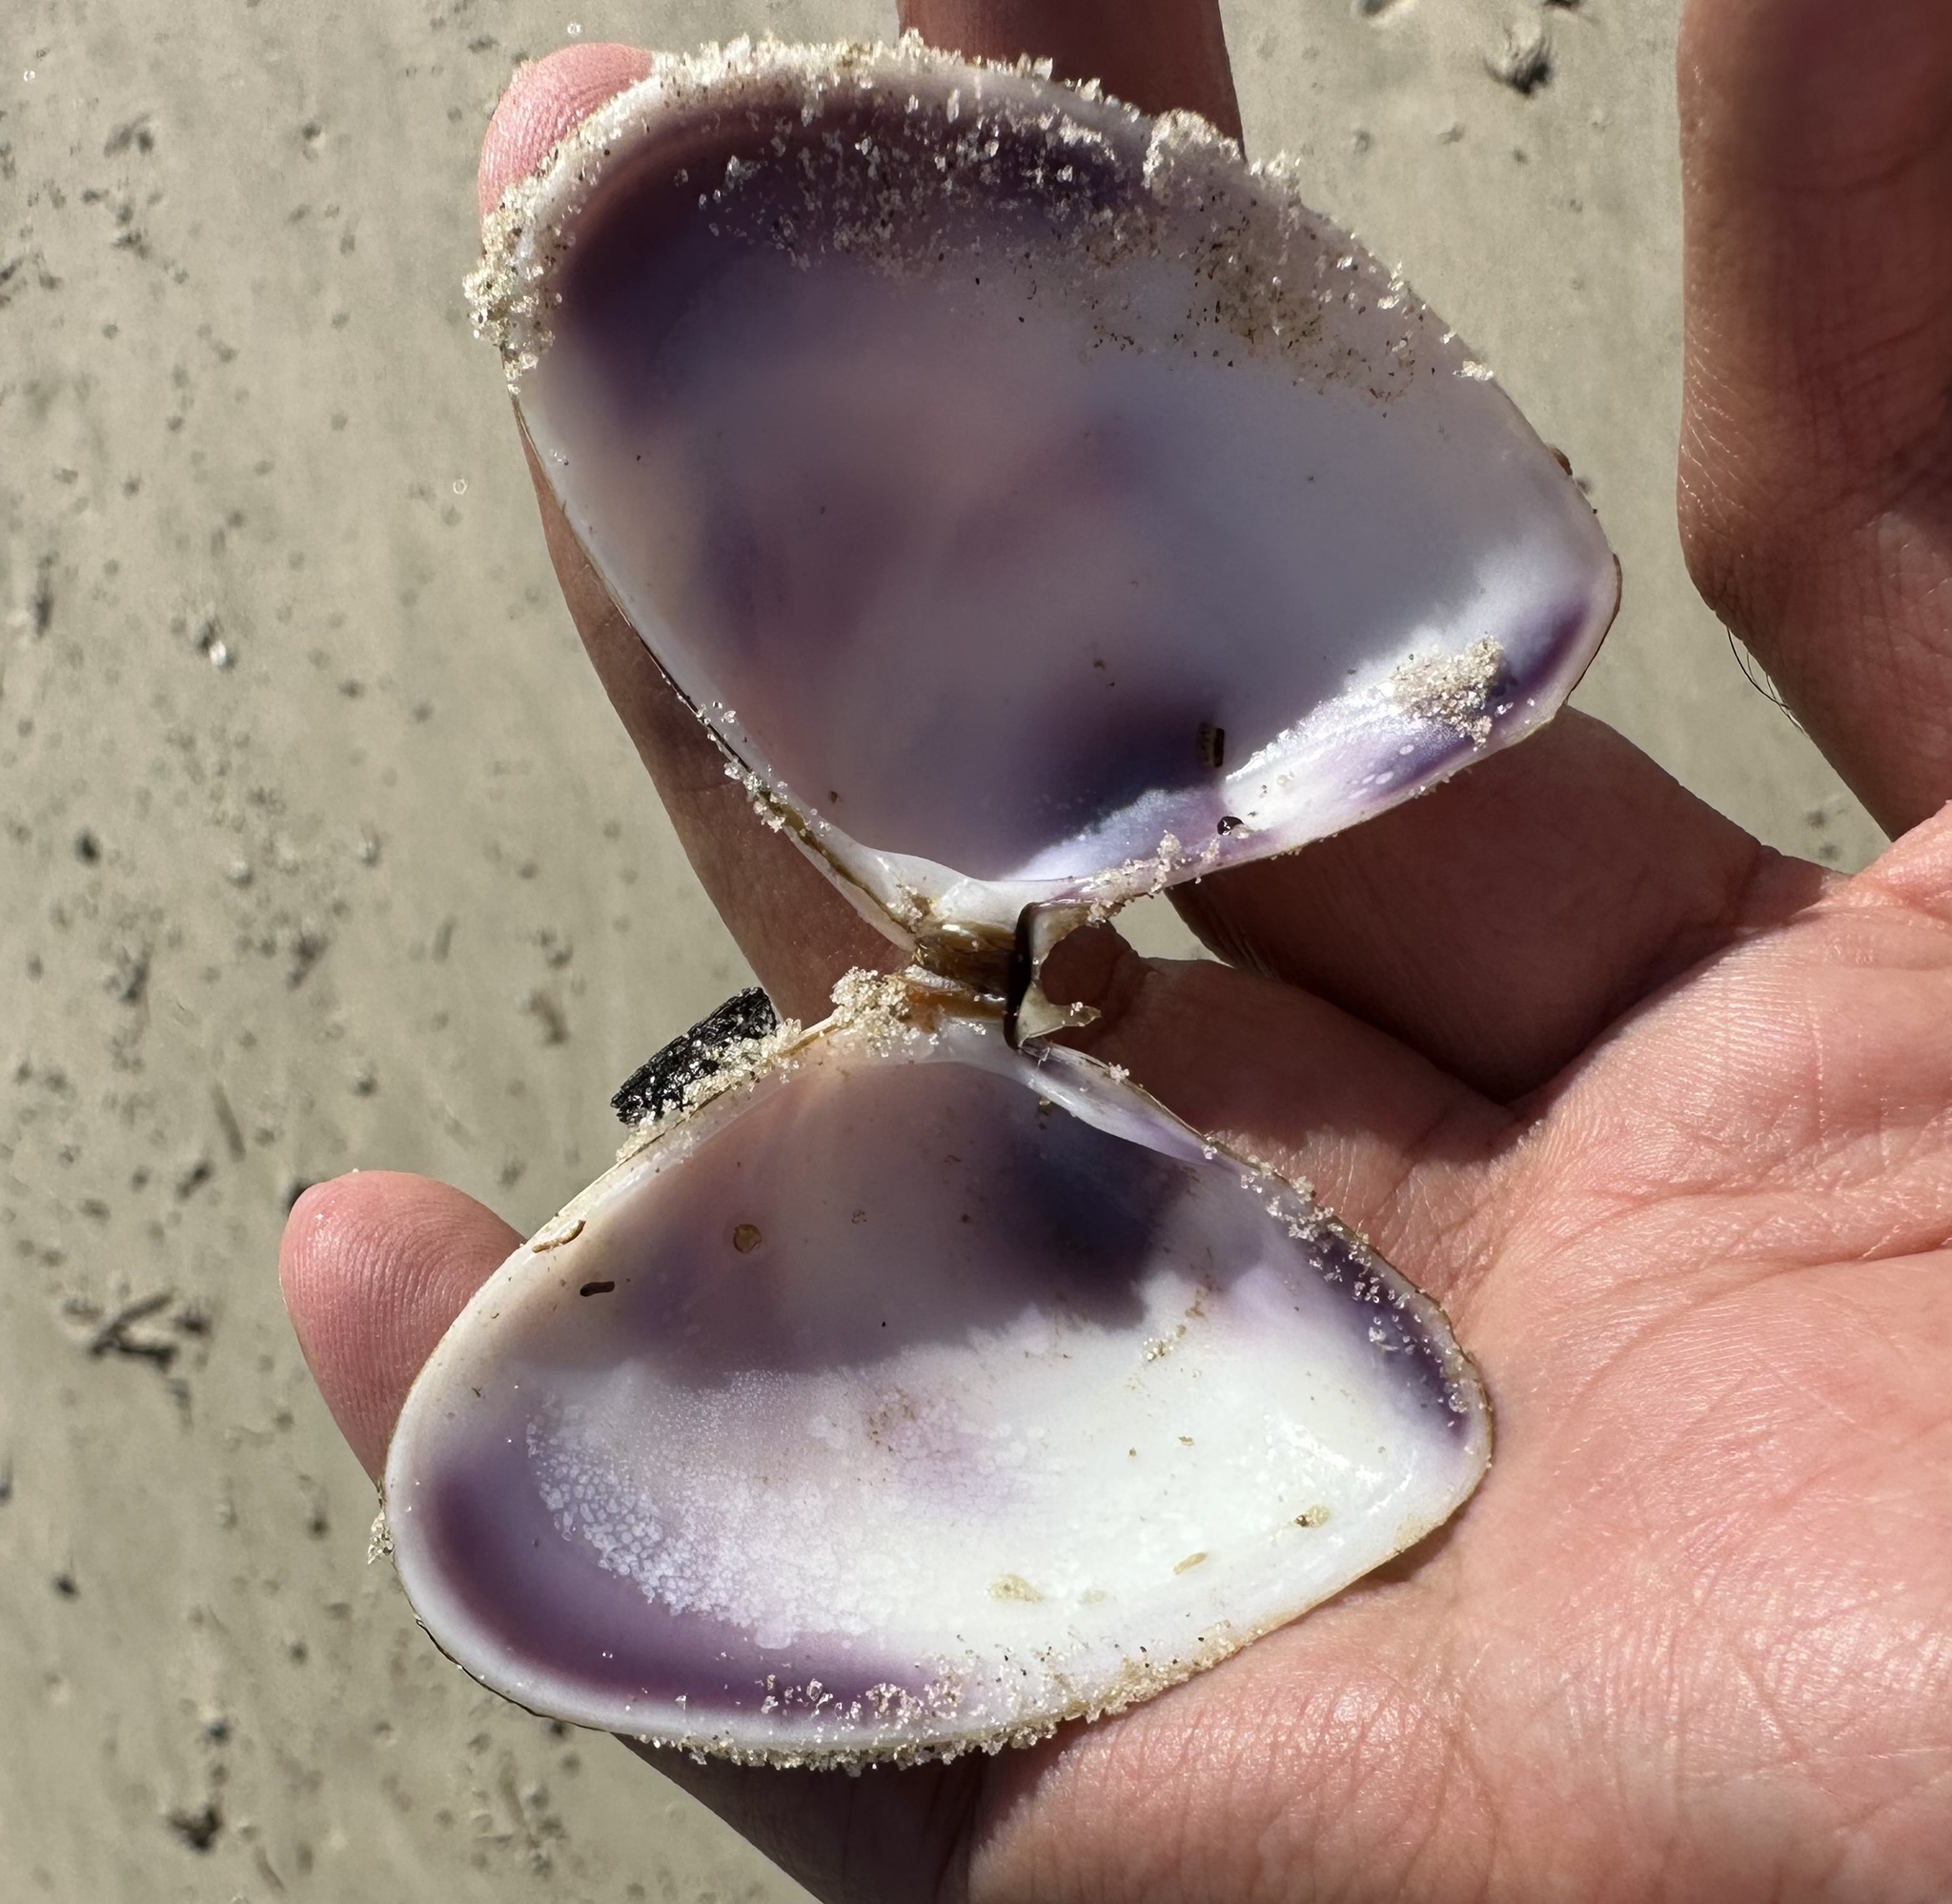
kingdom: Animalia
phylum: Mollusca
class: Bivalvia
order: Cardiida
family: Donacidae
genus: Latona
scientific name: Latona deltoides
